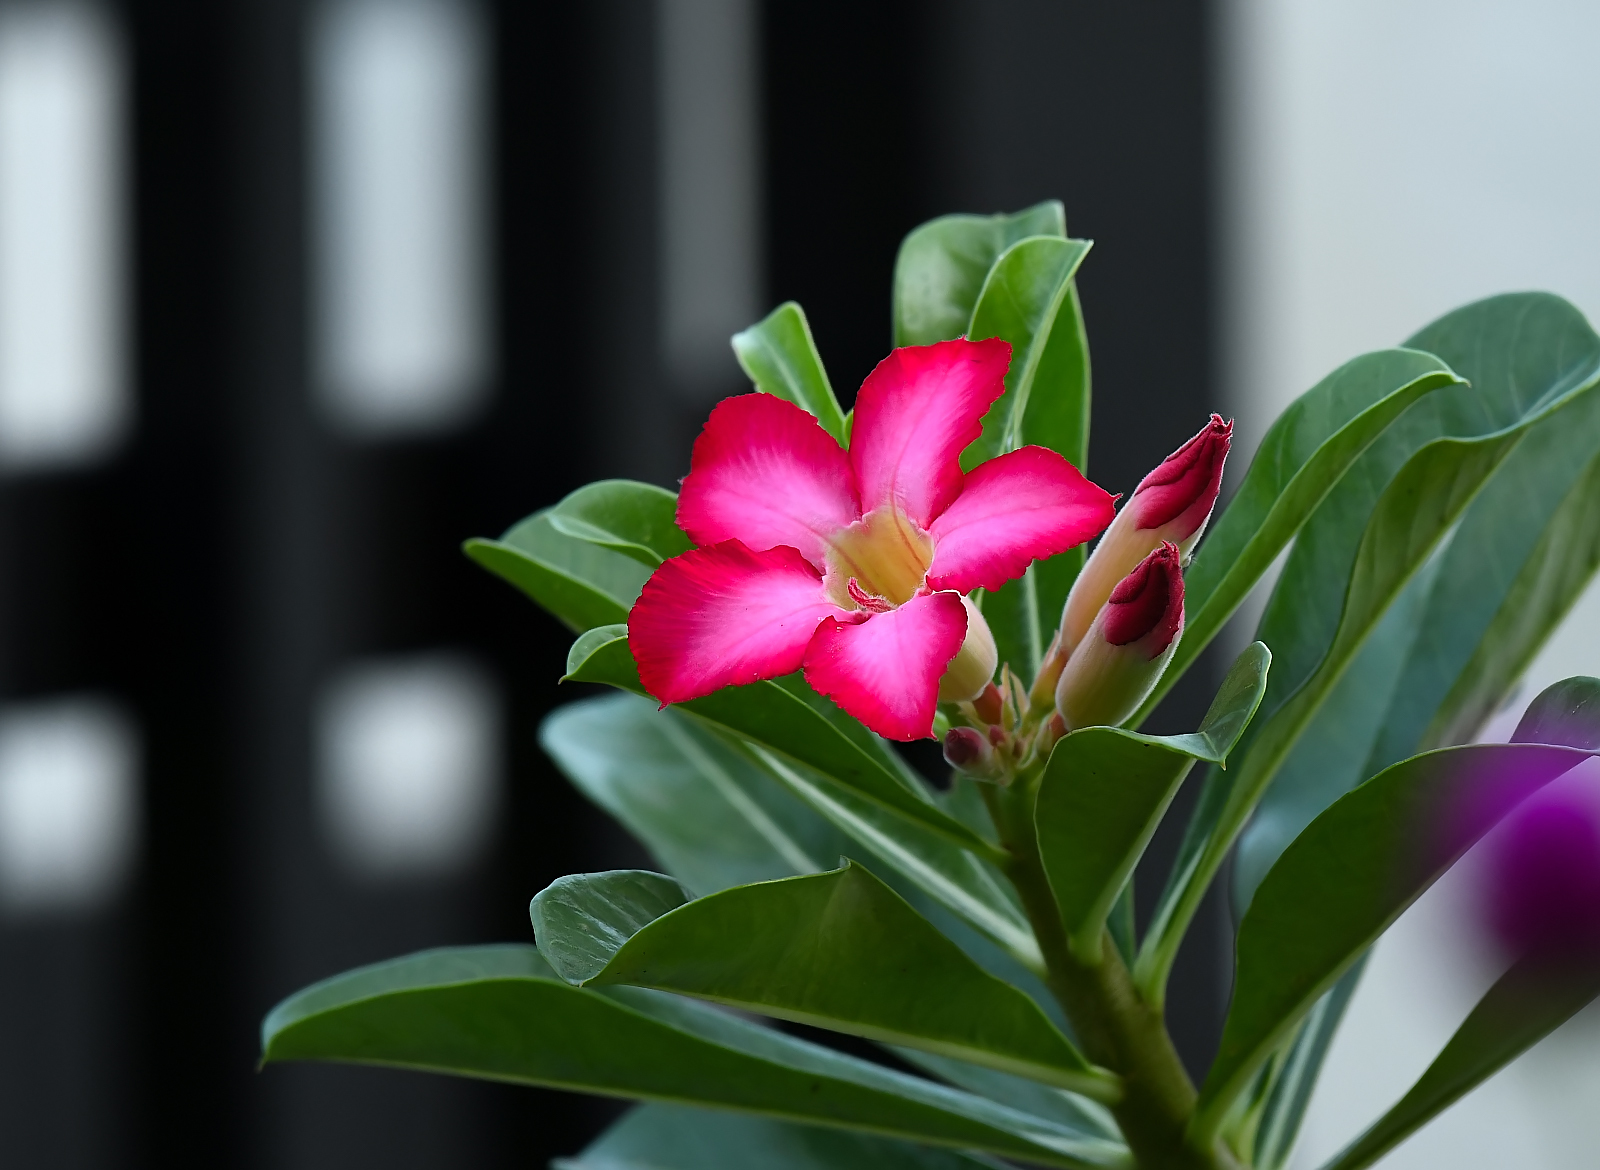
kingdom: Plantae
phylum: Tracheophyta
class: Magnoliopsida
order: Gentianales
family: Apocynaceae
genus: Adenium
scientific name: Adenium obesum
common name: Desert-rose
